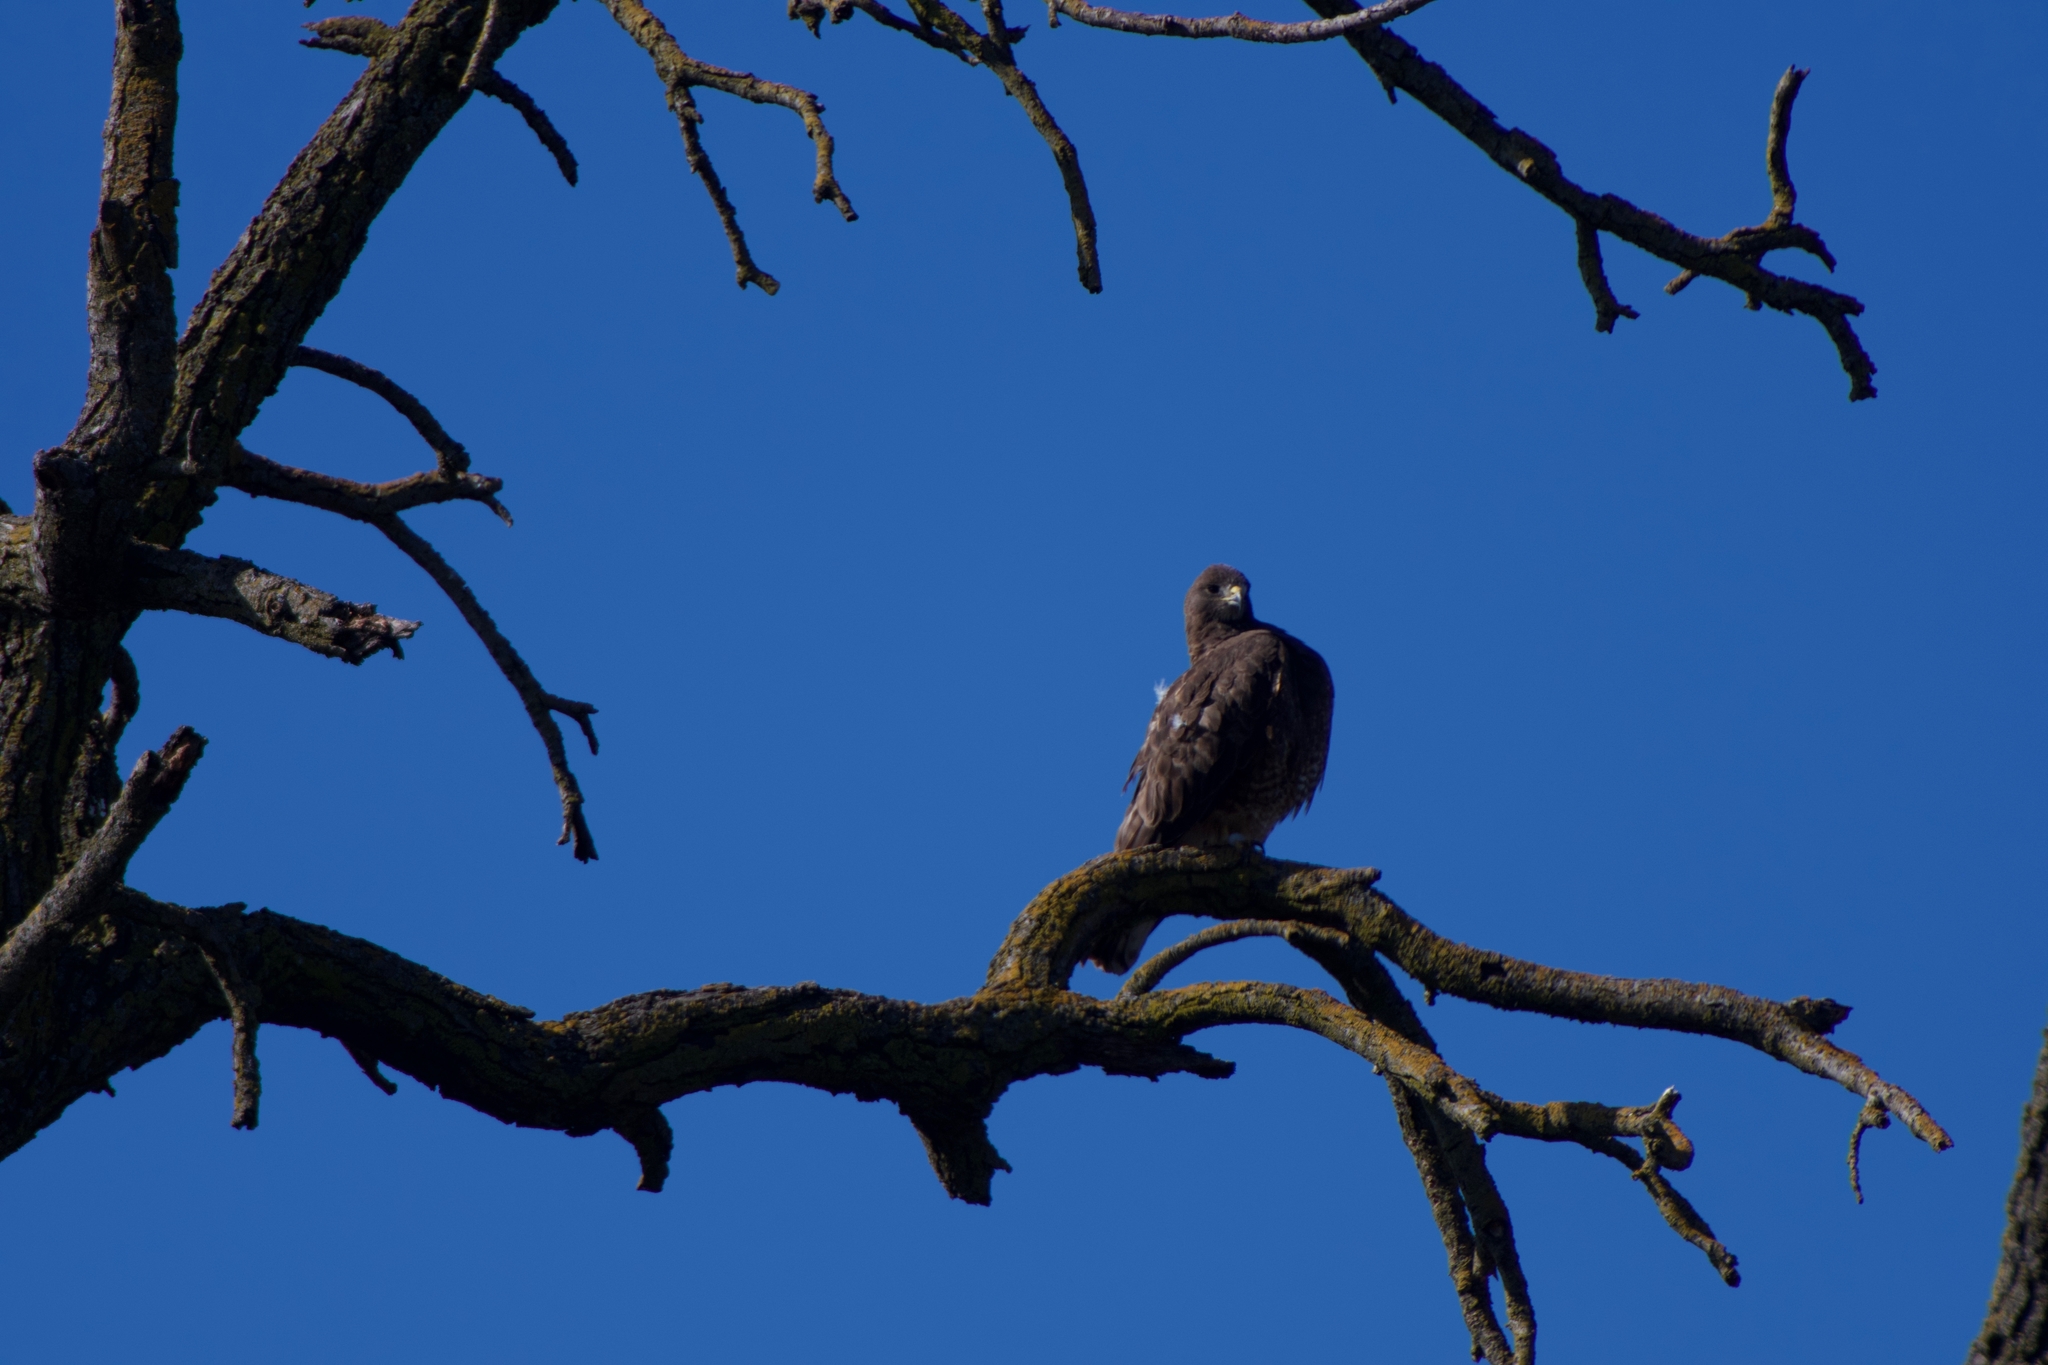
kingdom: Animalia
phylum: Chordata
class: Aves
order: Accipitriformes
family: Accipitridae
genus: Buteo
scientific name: Buteo jamaicensis
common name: Red-tailed hawk
